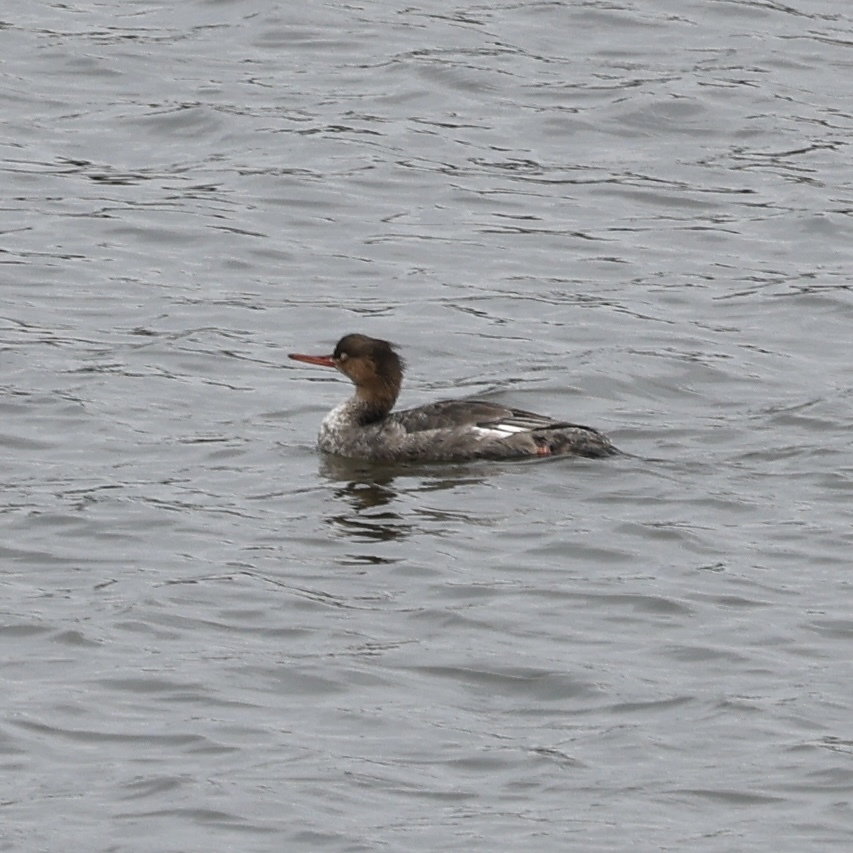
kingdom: Animalia
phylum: Chordata
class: Aves
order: Anseriformes
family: Anatidae
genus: Mergus
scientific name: Mergus serrator
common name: Red-breasted merganser
